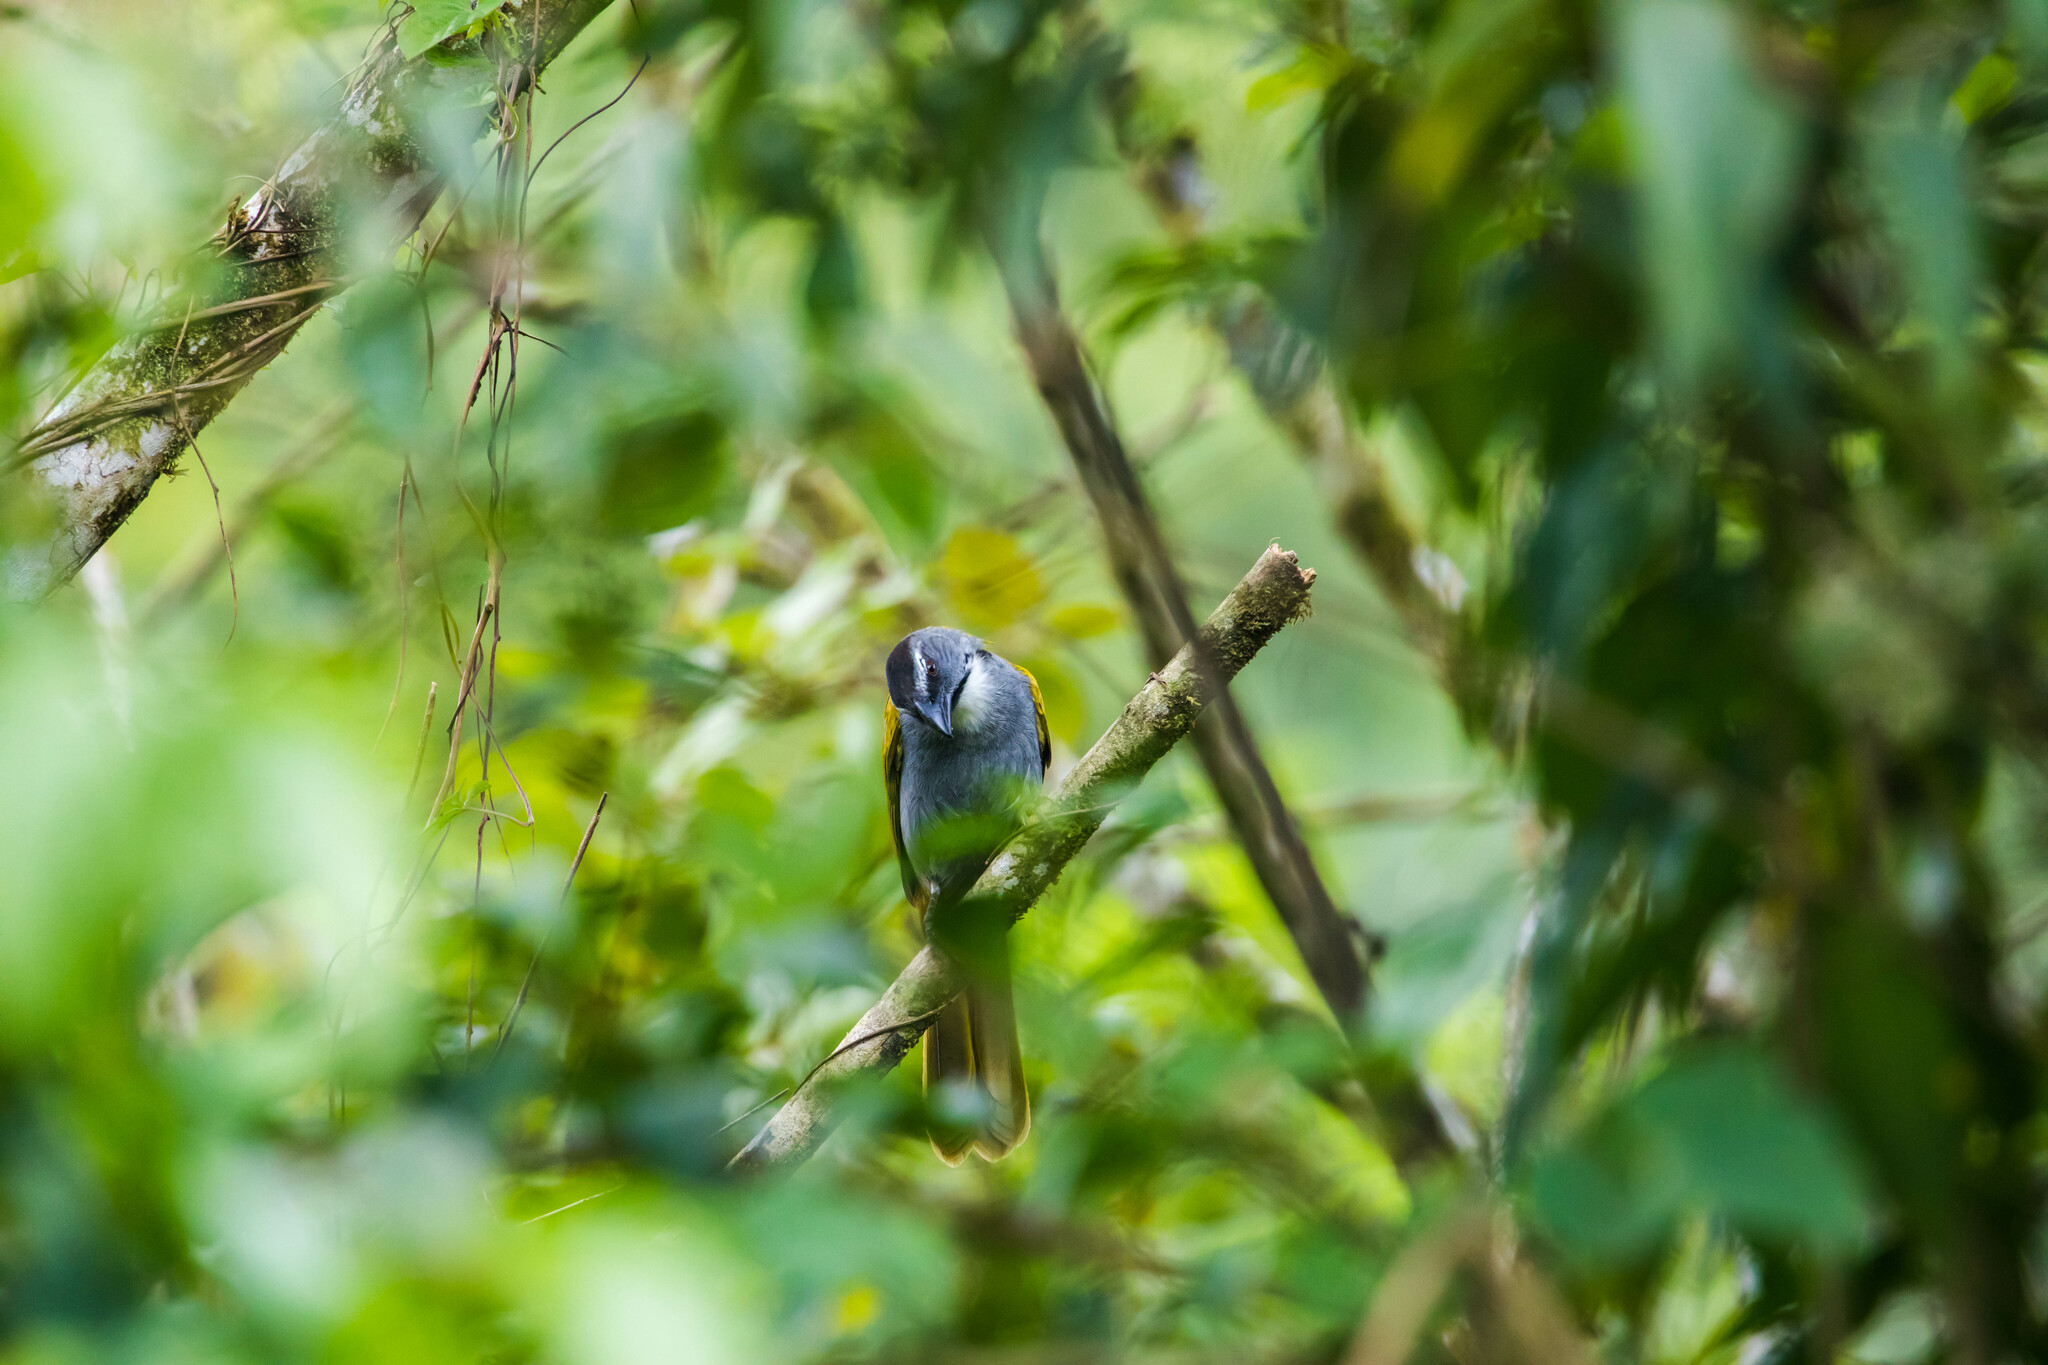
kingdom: Animalia
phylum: Chordata
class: Aves
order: Passeriformes
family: Thraupidae
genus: Saltator
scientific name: Saltator atriceps
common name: Black-headed saltator
